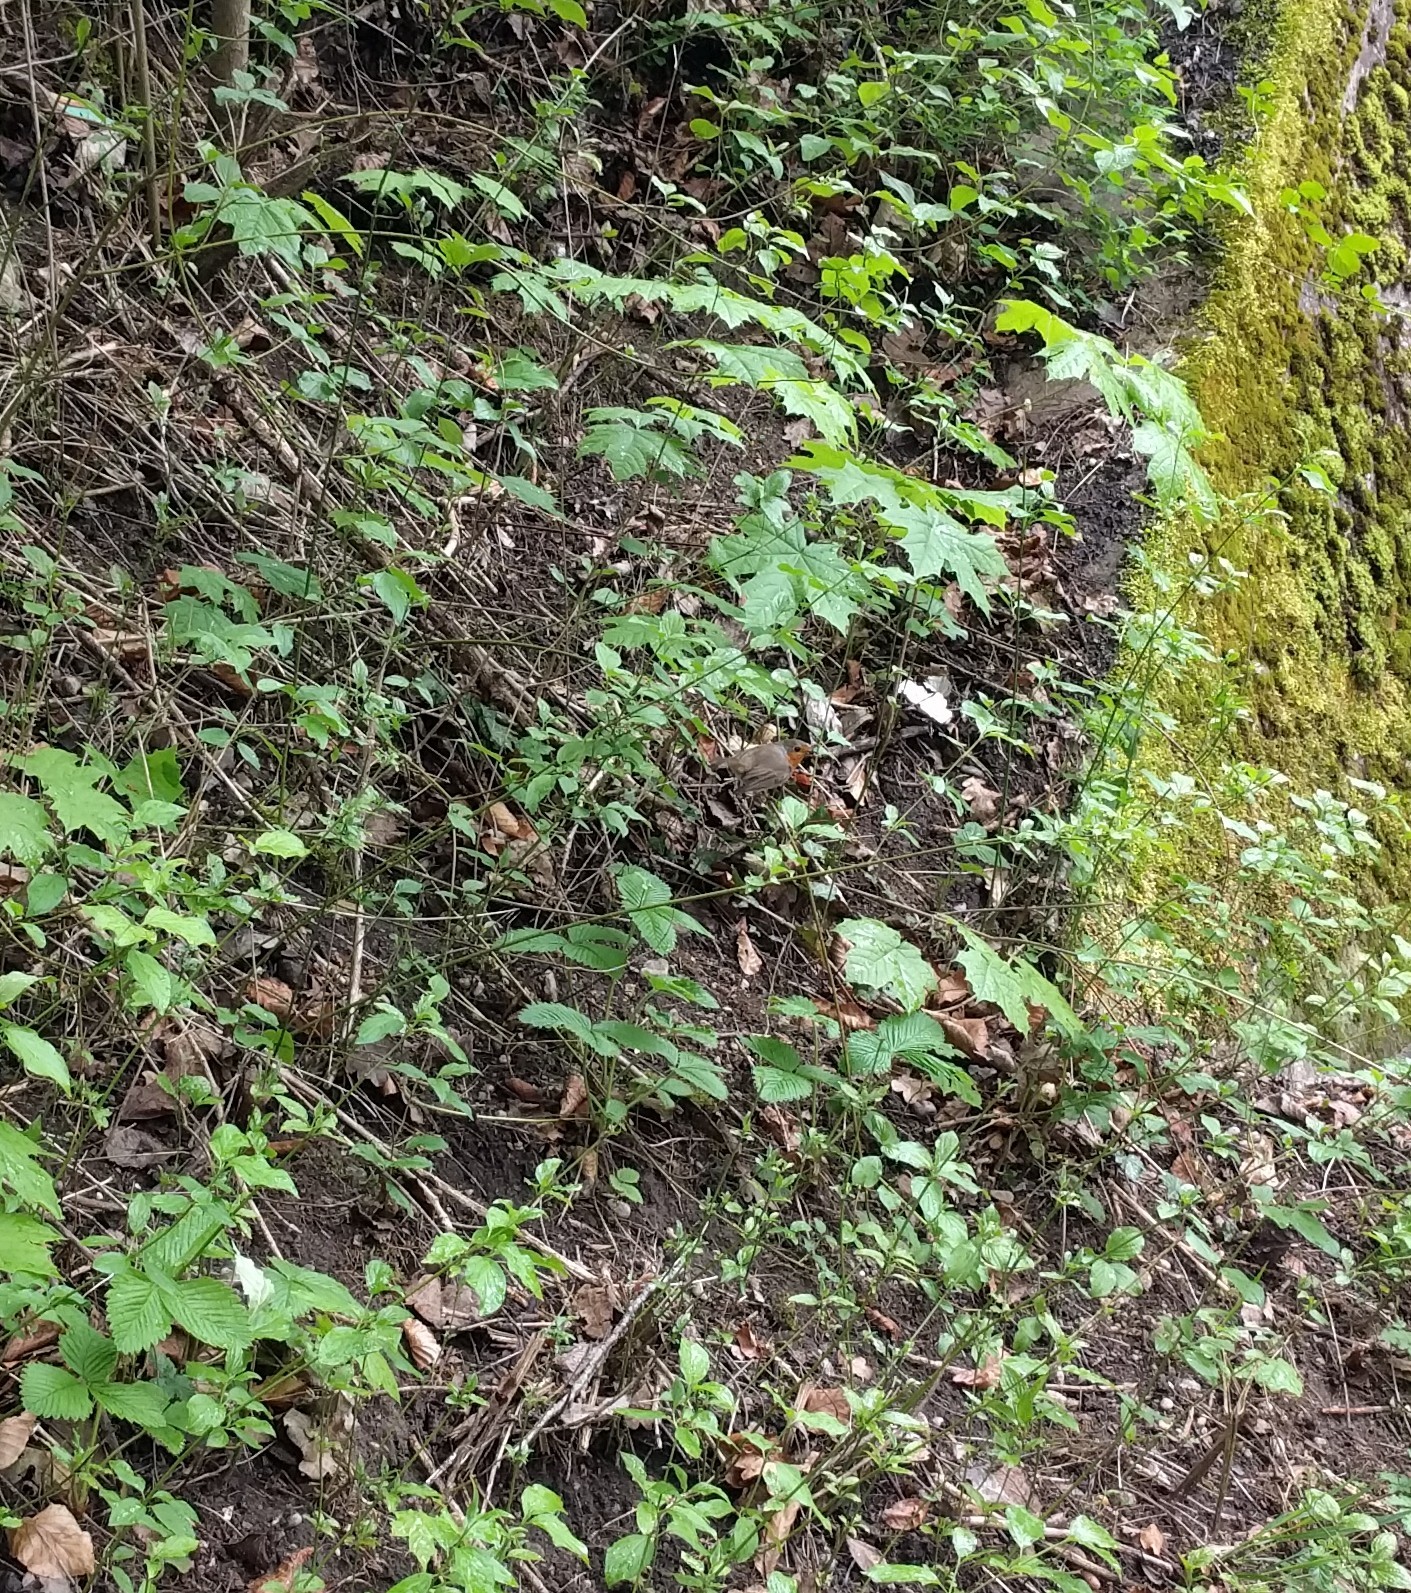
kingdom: Animalia
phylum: Chordata
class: Aves
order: Passeriformes
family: Muscicapidae
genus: Erithacus
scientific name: Erithacus rubecula
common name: European robin
